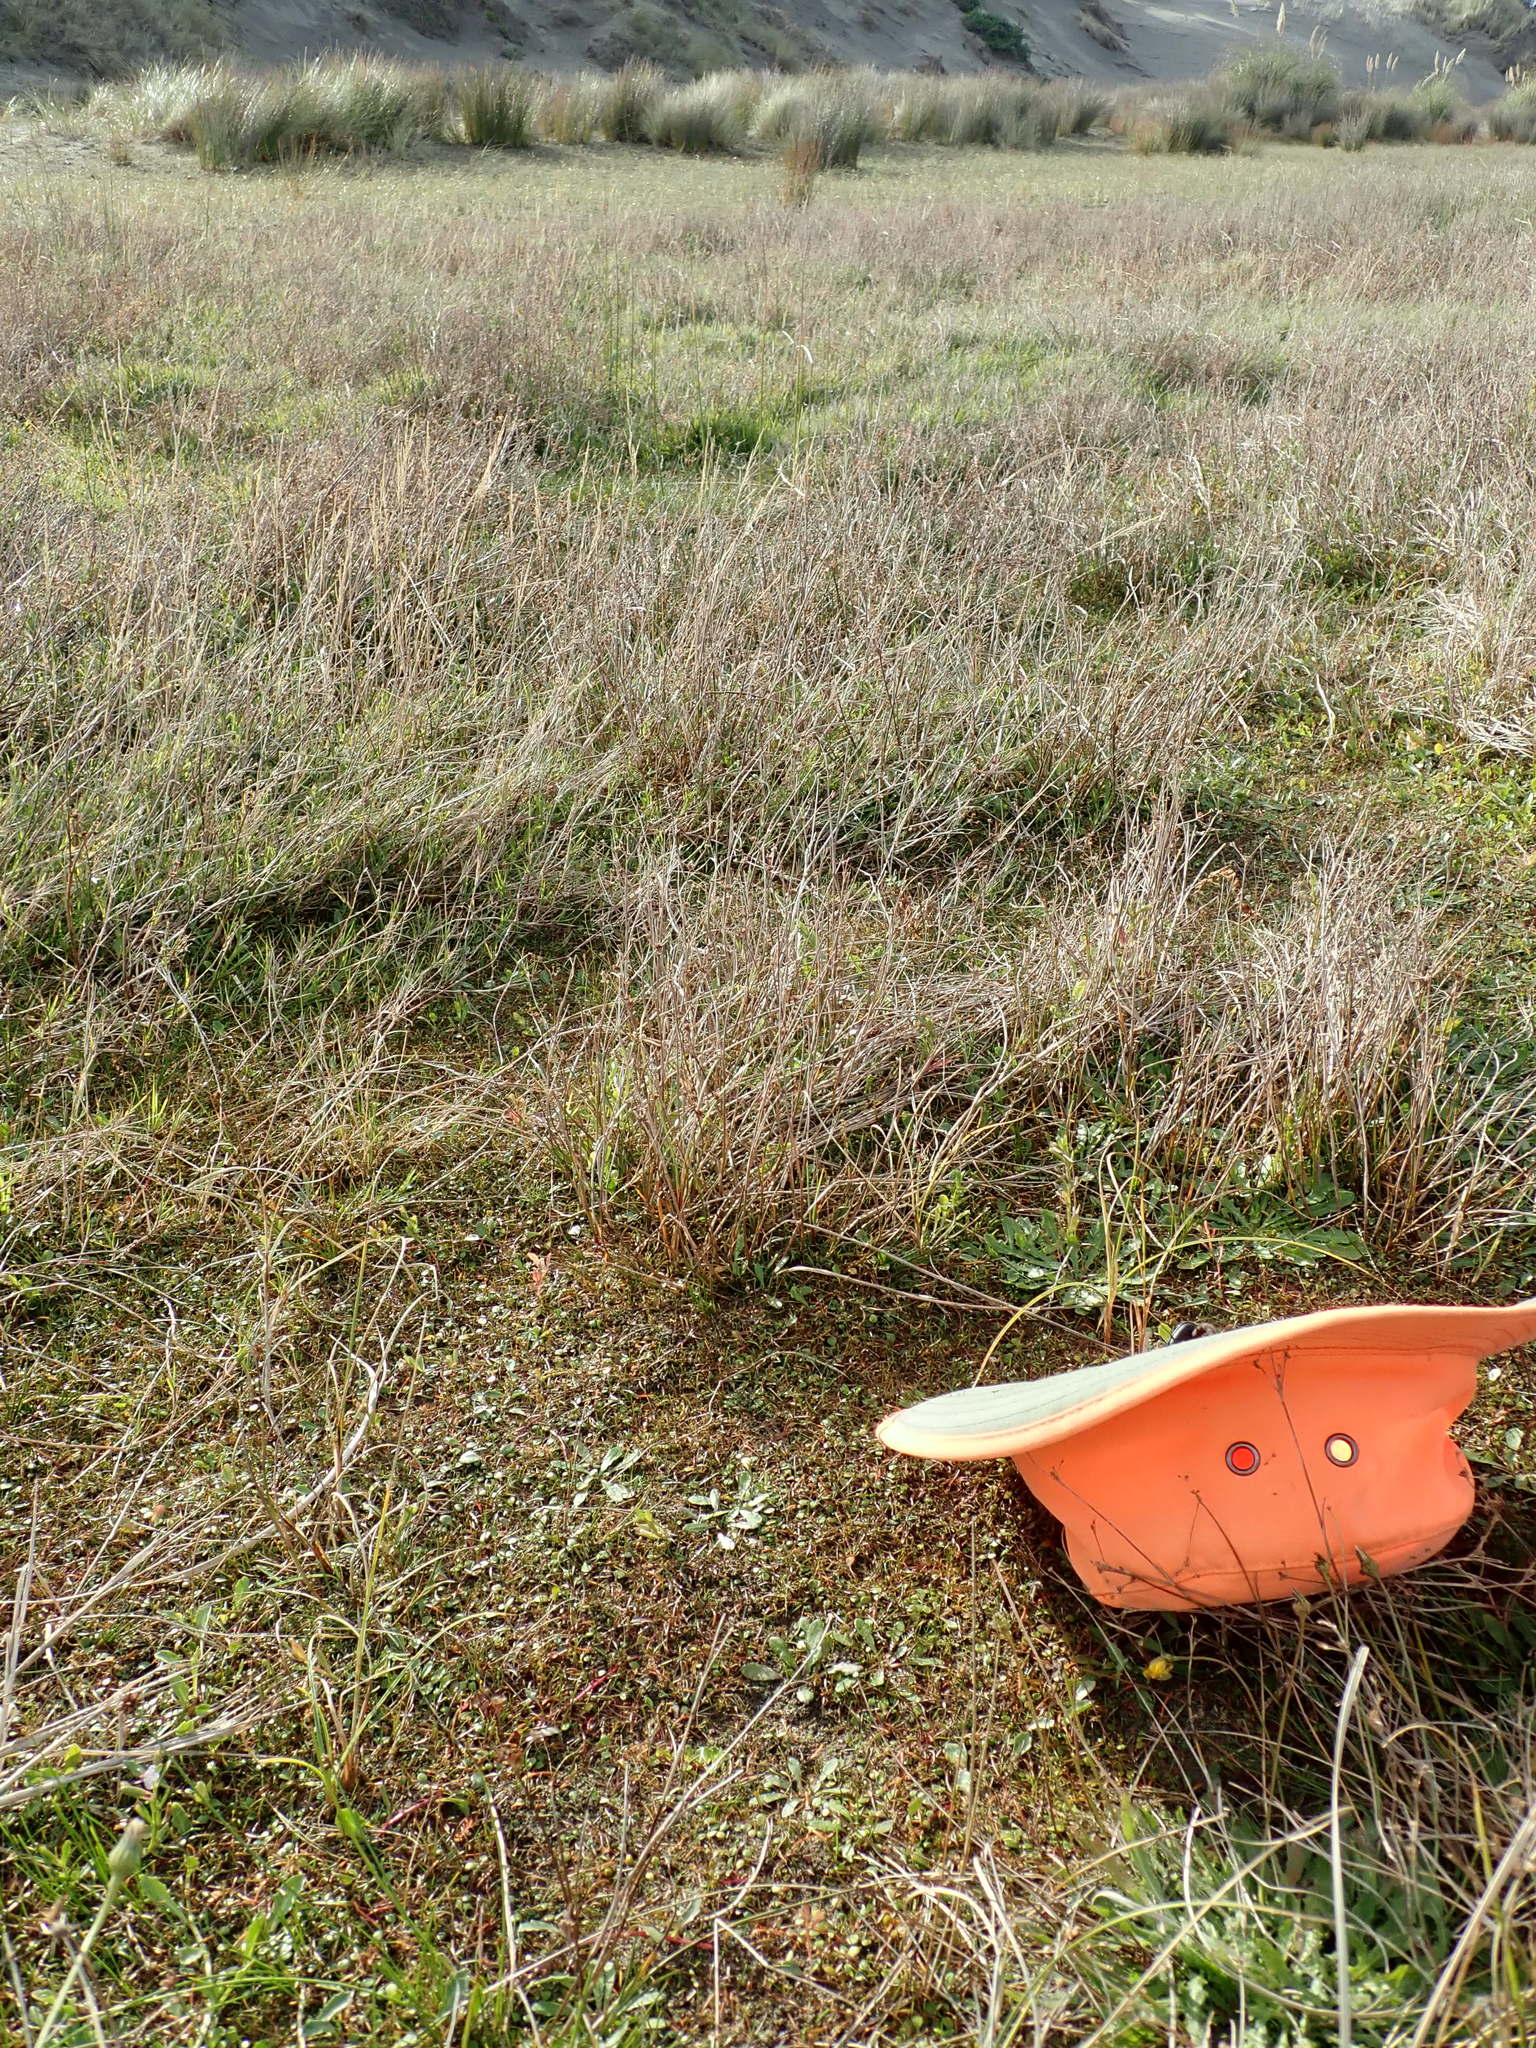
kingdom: Plantae
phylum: Tracheophyta
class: Magnoliopsida
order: Myrtales
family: Onagraceae
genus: Epilobium
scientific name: Epilobium billardiereanum
